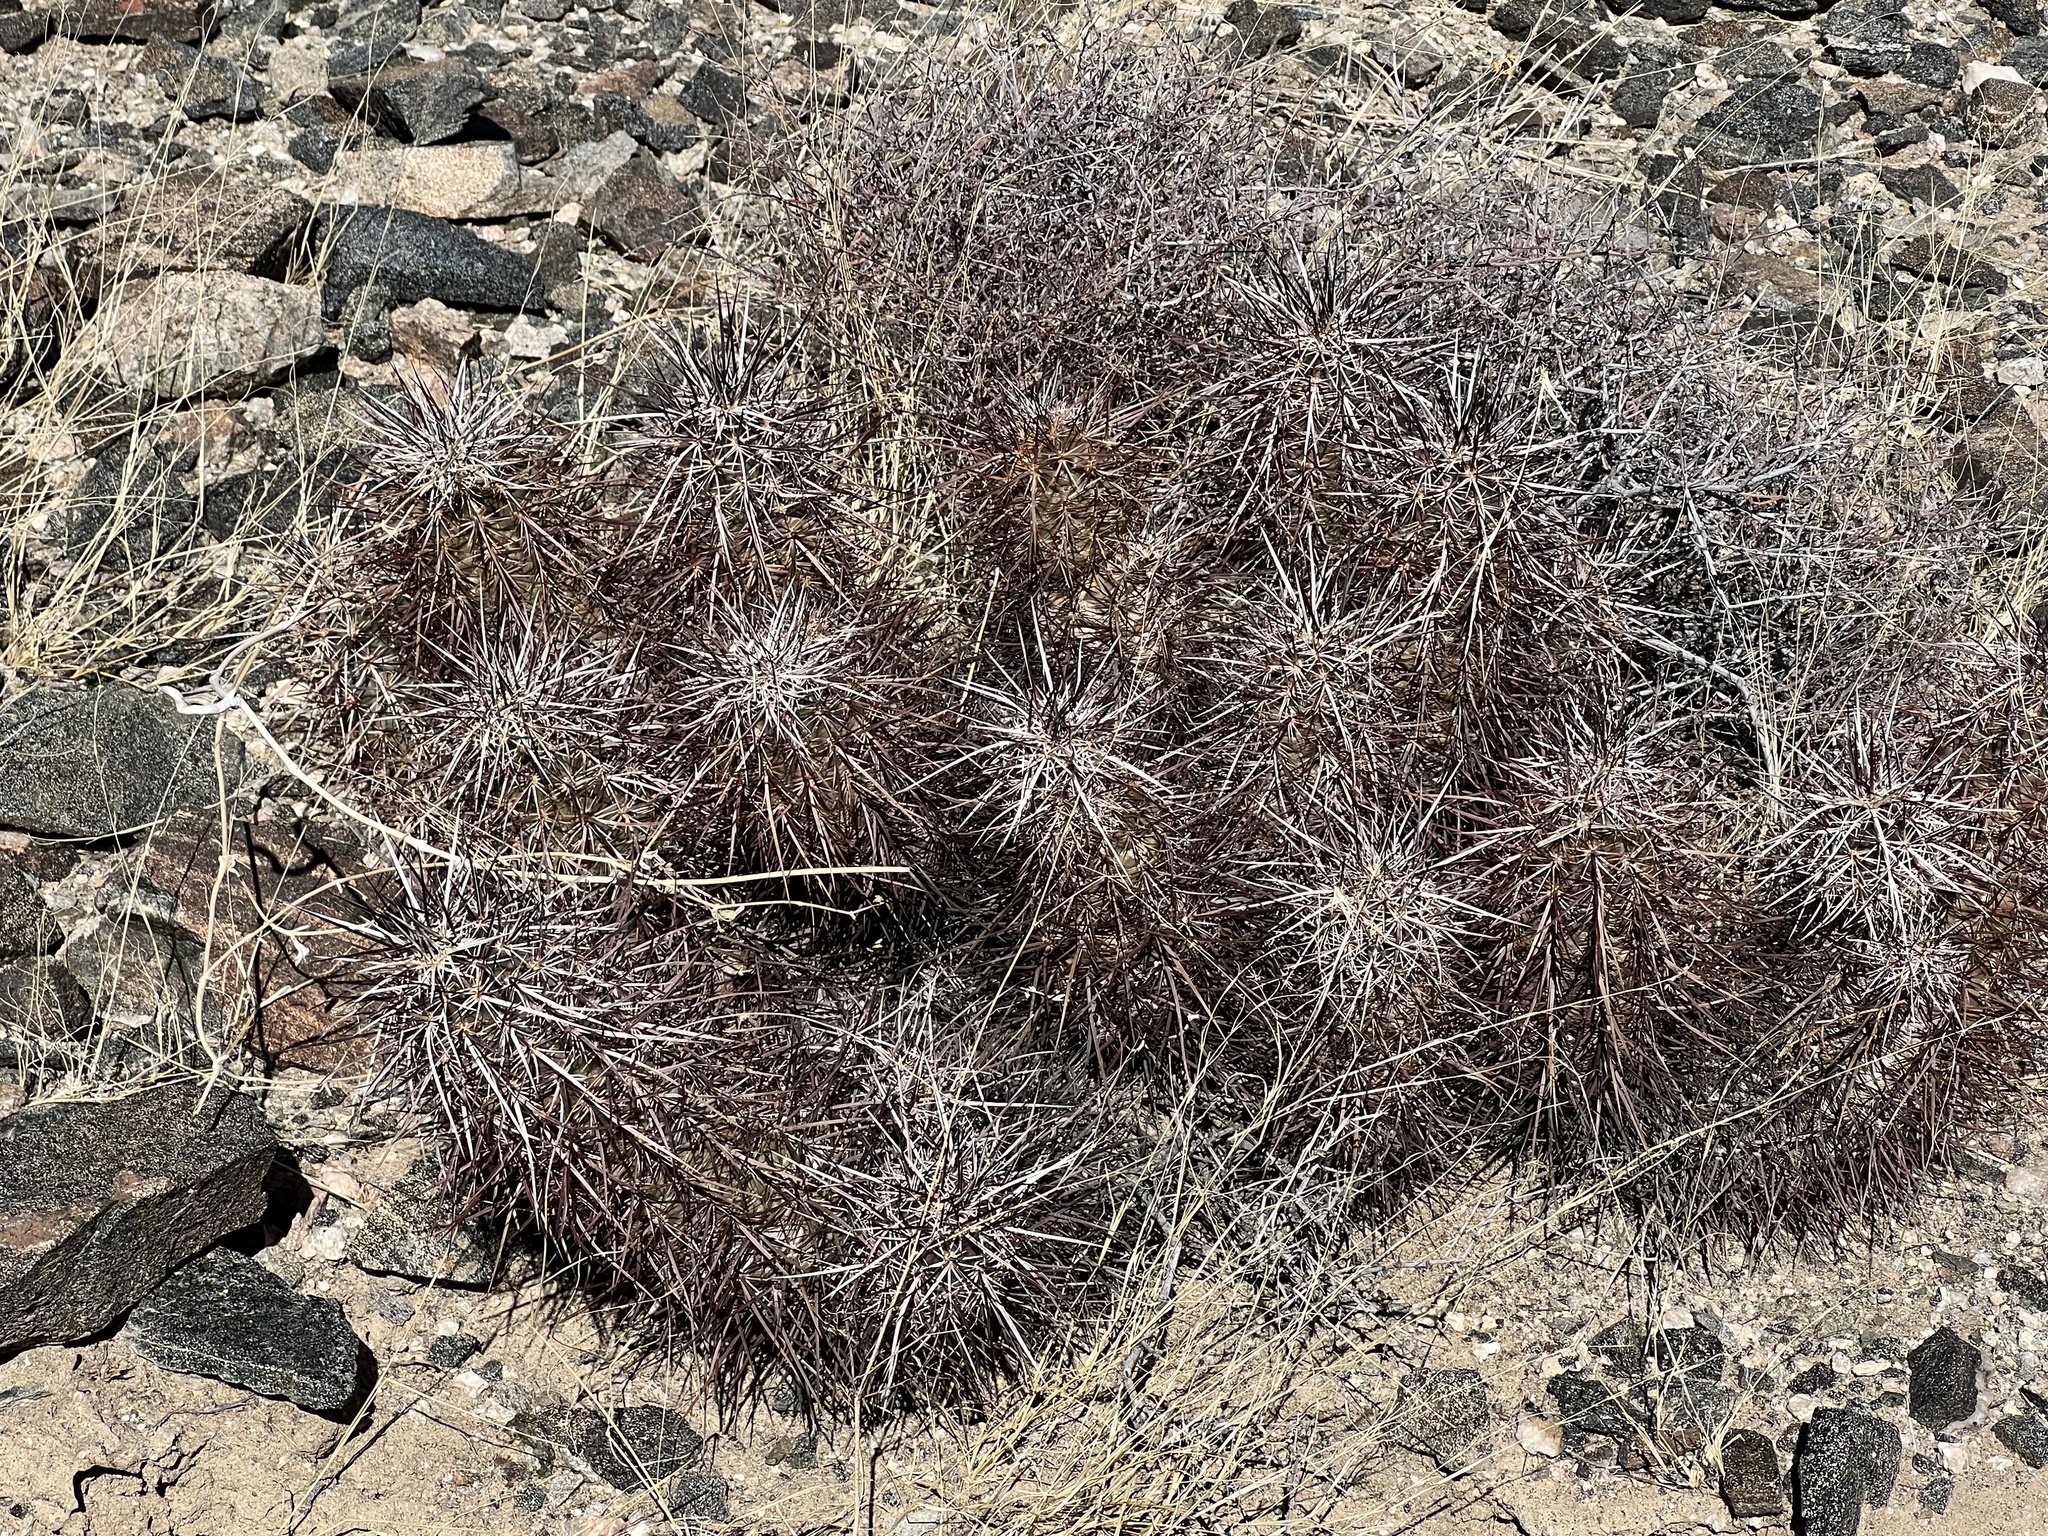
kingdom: Plantae
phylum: Tracheophyta
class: Magnoliopsida
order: Caryophyllales
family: Cactaceae
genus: Echinocereus
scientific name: Echinocereus engelmannii
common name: Engelmann's hedgehog cactus
